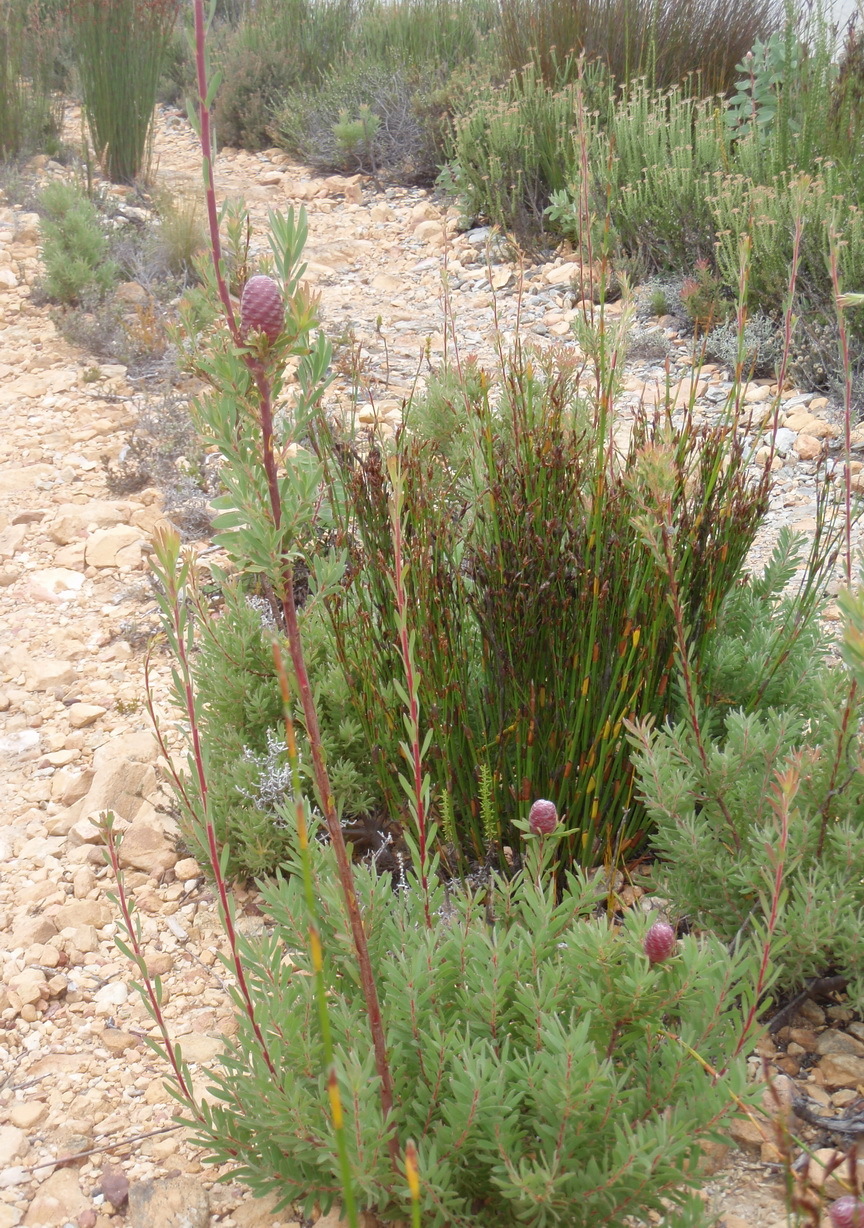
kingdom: Plantae
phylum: Tracheophyta
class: Magnoliopsida
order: Proteales
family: Proteaceae
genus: Leucadendron
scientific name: Leucadendron rourkei
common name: Uniondale conebush
